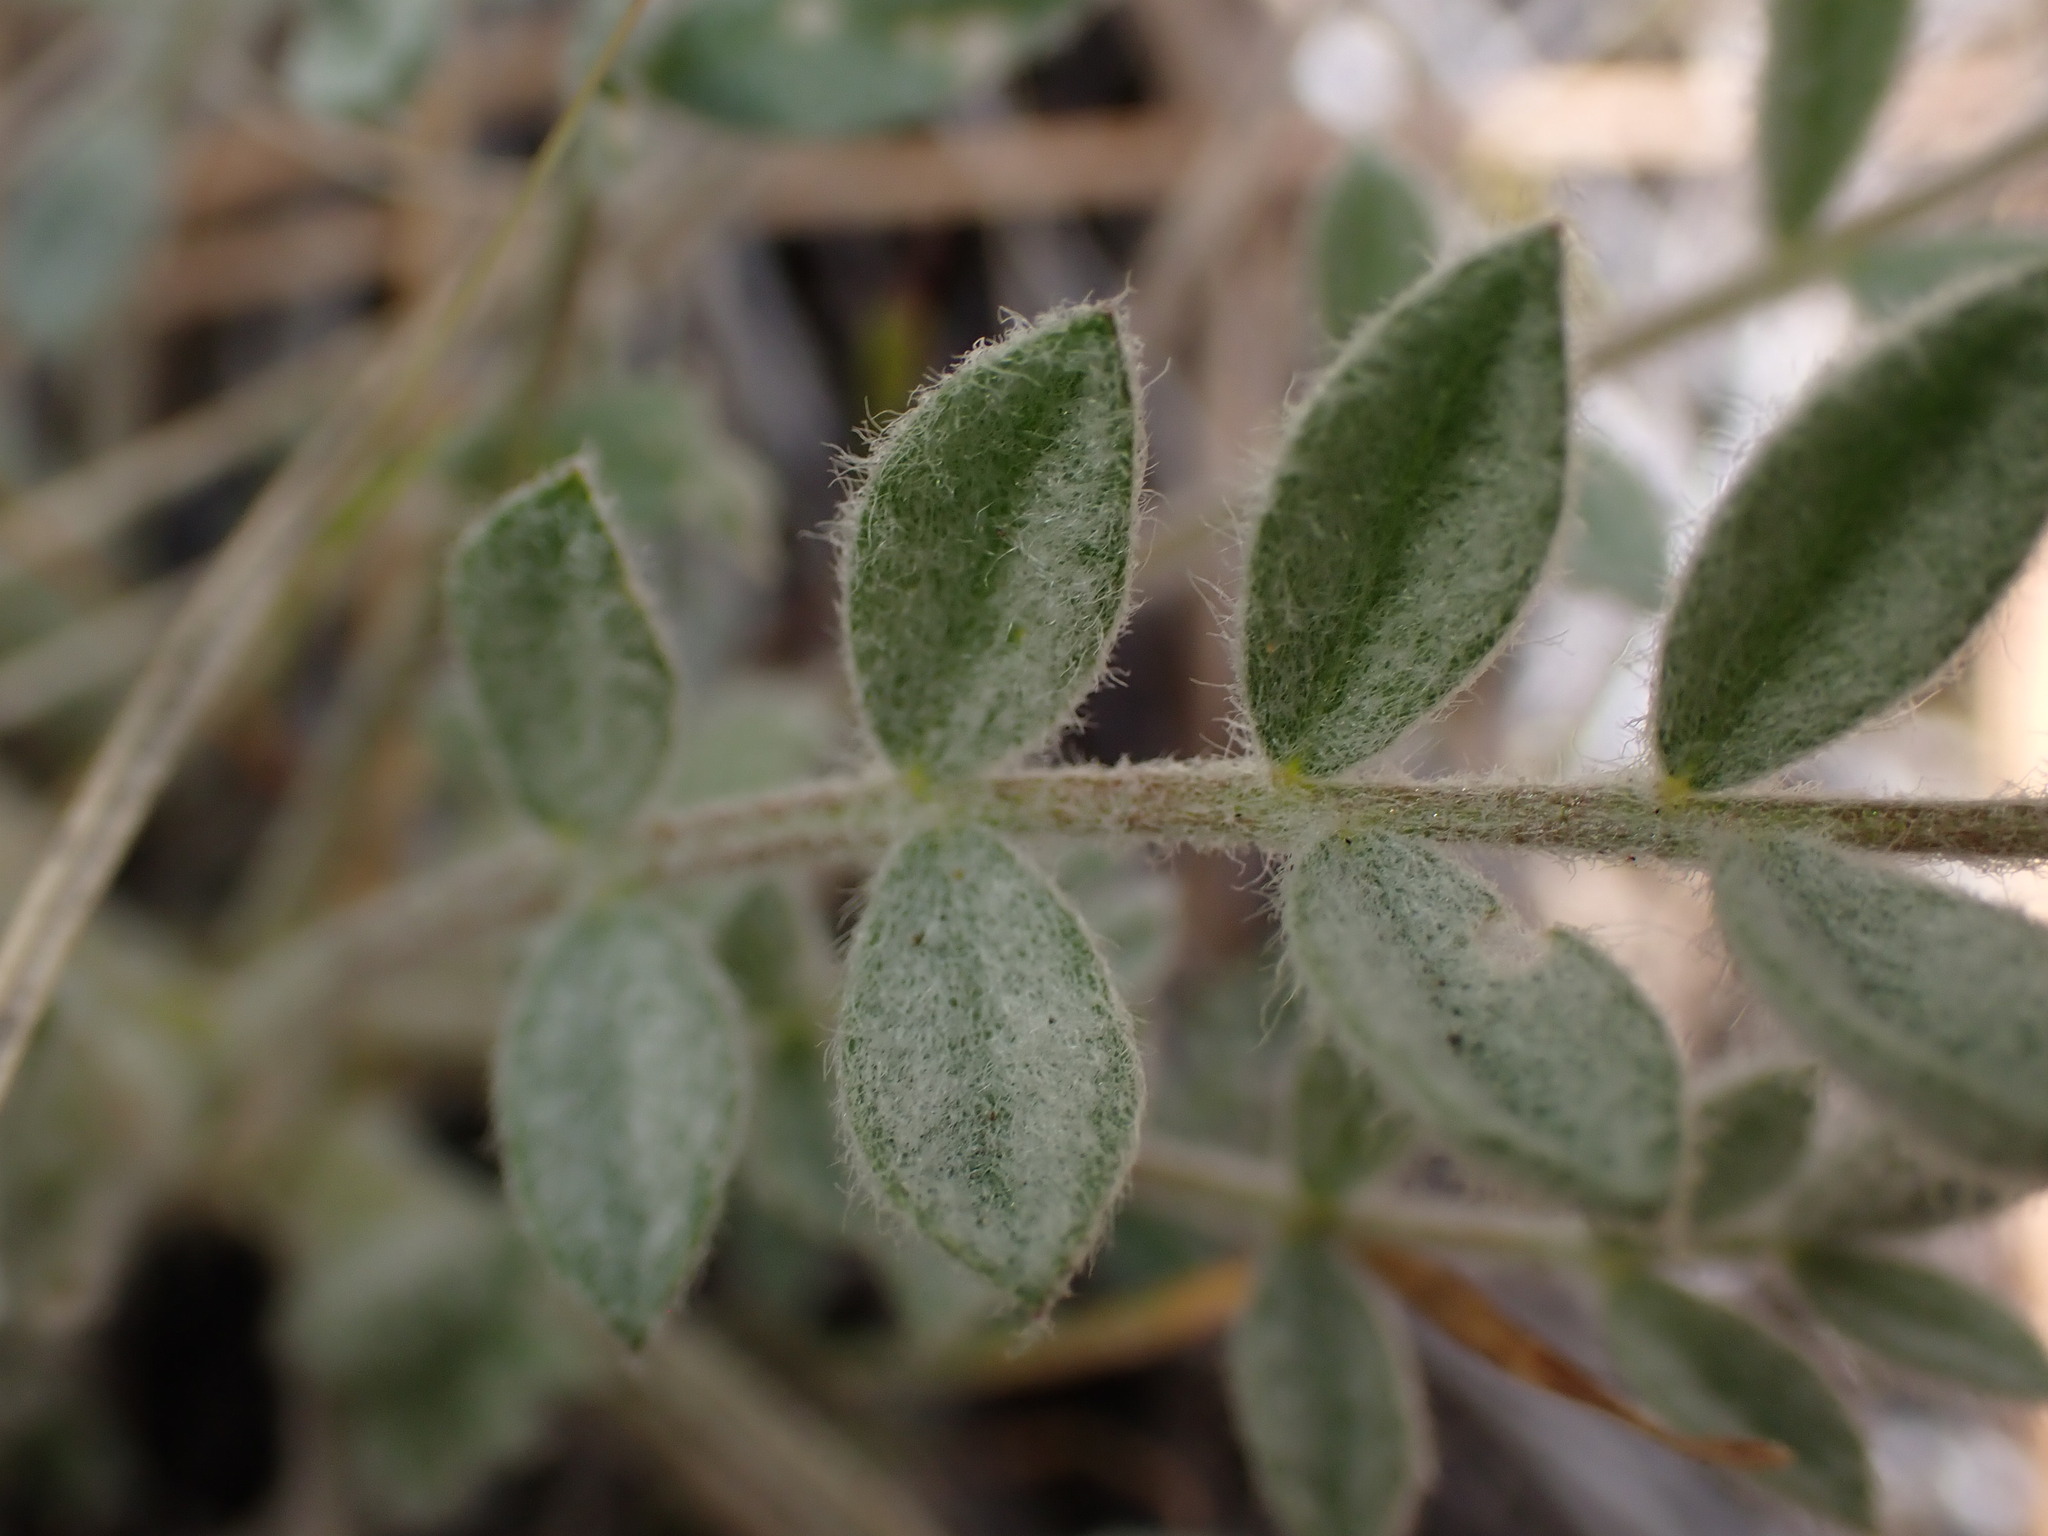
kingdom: Plantae
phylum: Tracheophyta
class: Magnoliopsida
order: Asterales
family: Asteraceae
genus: Centaurea
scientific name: Centaurea diffusa
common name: Diffuse knapweed
